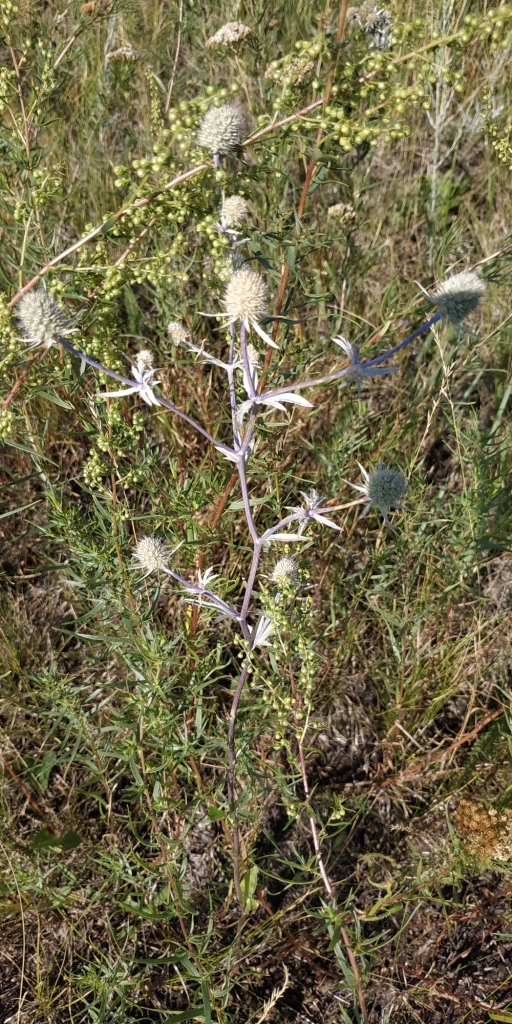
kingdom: Plantae
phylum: Tracheophyta
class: Magnoliopsida
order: Apiales
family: Apiaceae
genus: Eryngium
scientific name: Eryngium planum
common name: Blue eryngo
